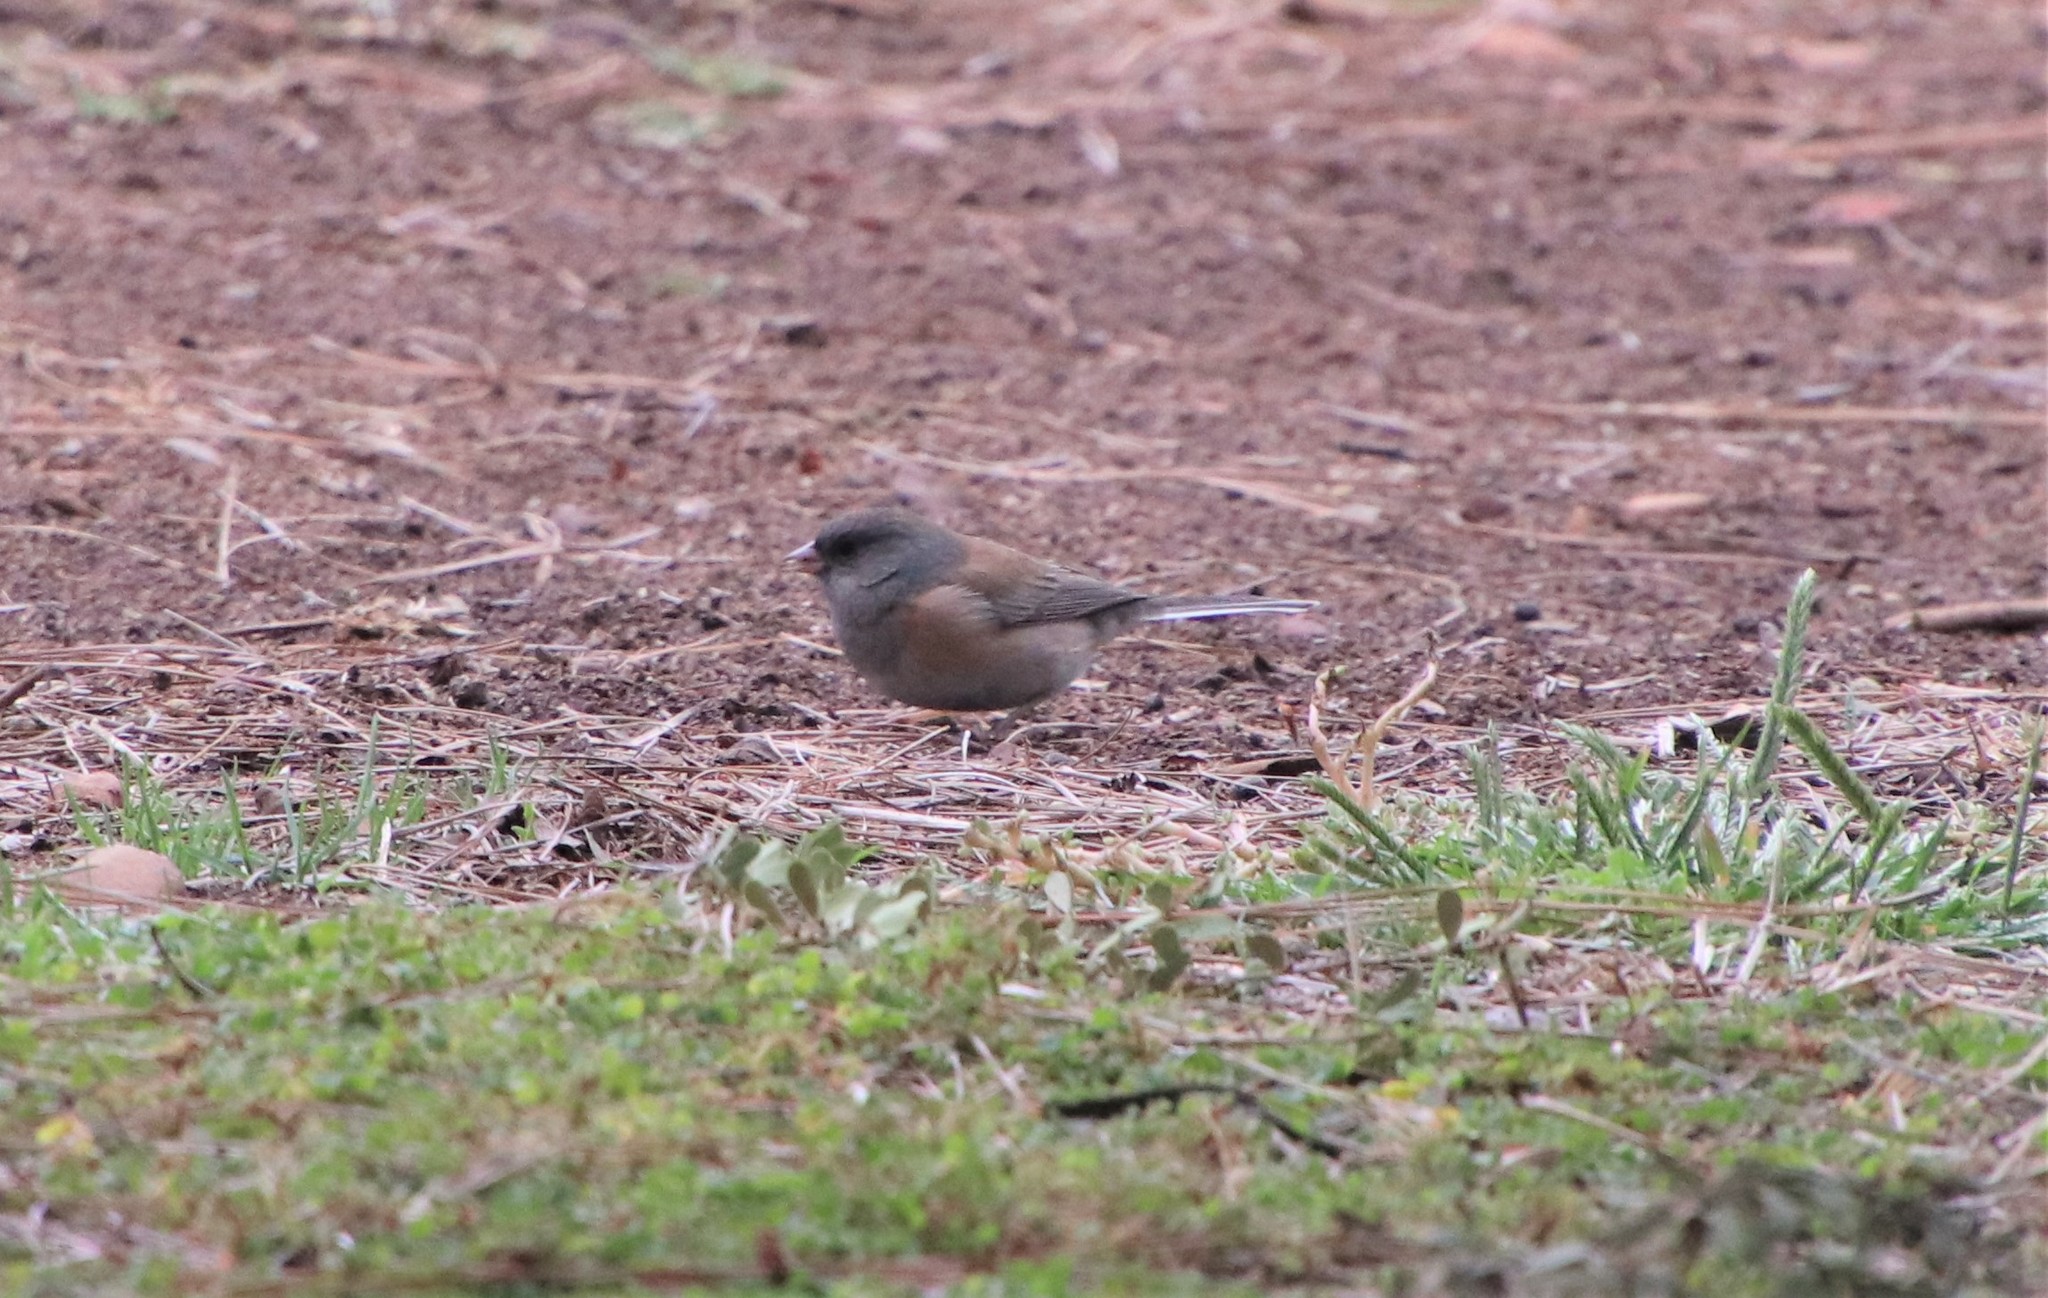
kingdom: Animalia
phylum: Chordata
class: Aves
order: Passeriformes
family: Passerellidae
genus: Junco
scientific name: Junco hyemalis
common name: Dark-eyed junco
